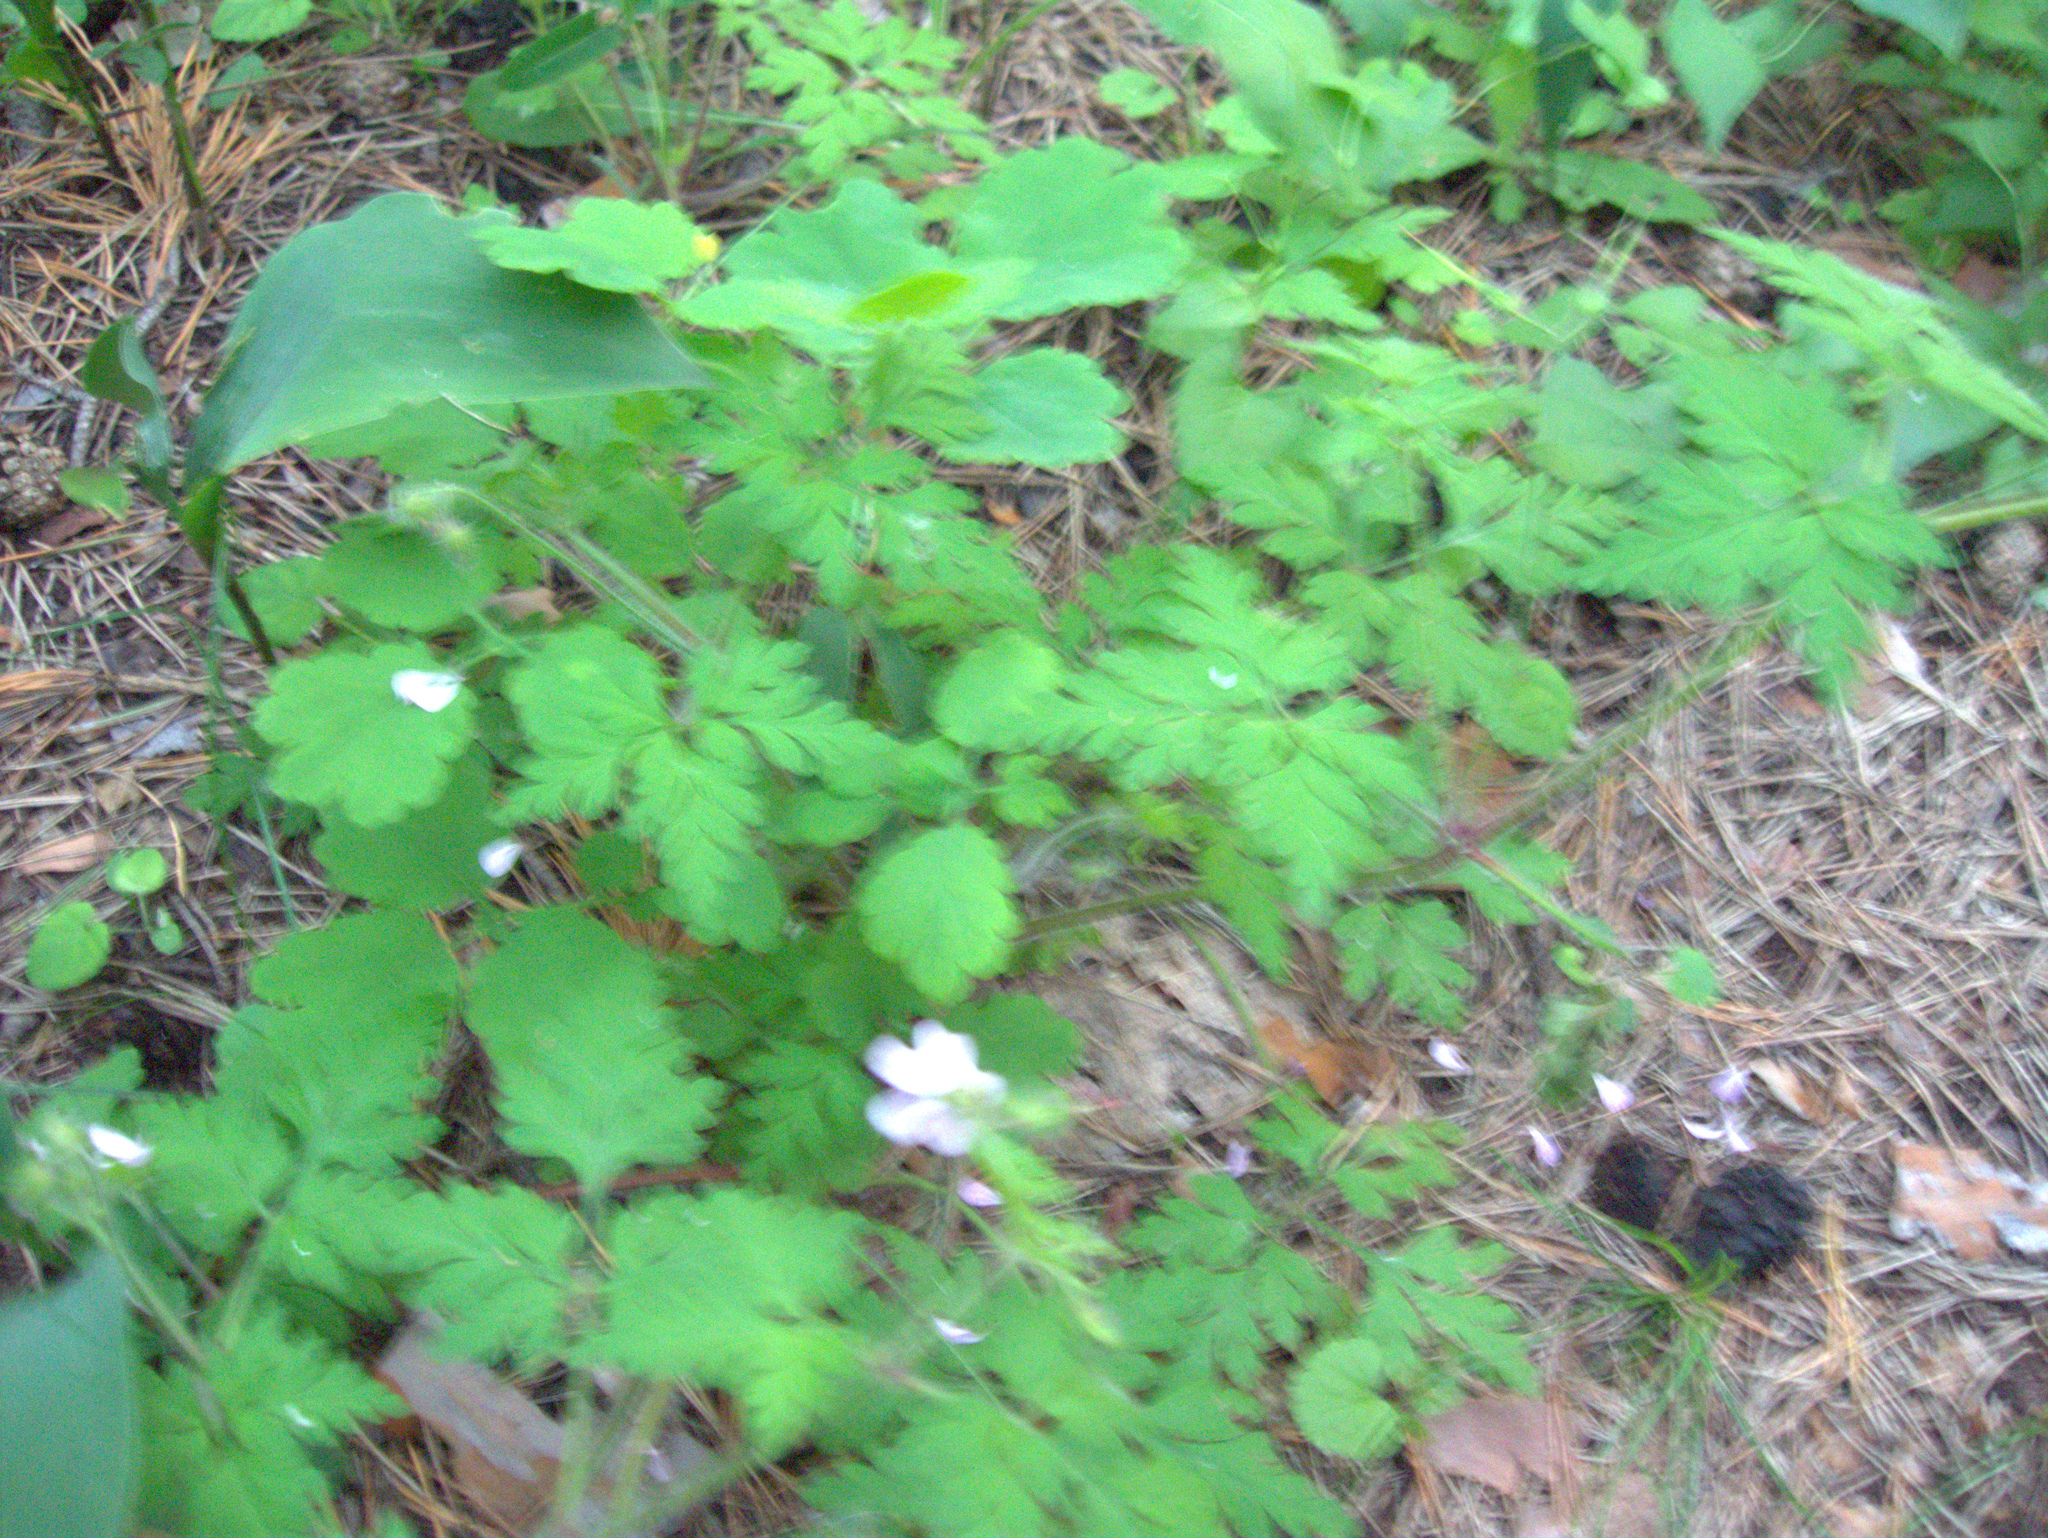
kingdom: Plantae
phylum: Tracheophyta
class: Liliopsida
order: Asparagales
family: Asparagaceae
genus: Convallaria
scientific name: Convallaria majalis
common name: Lily-of-the-valley
